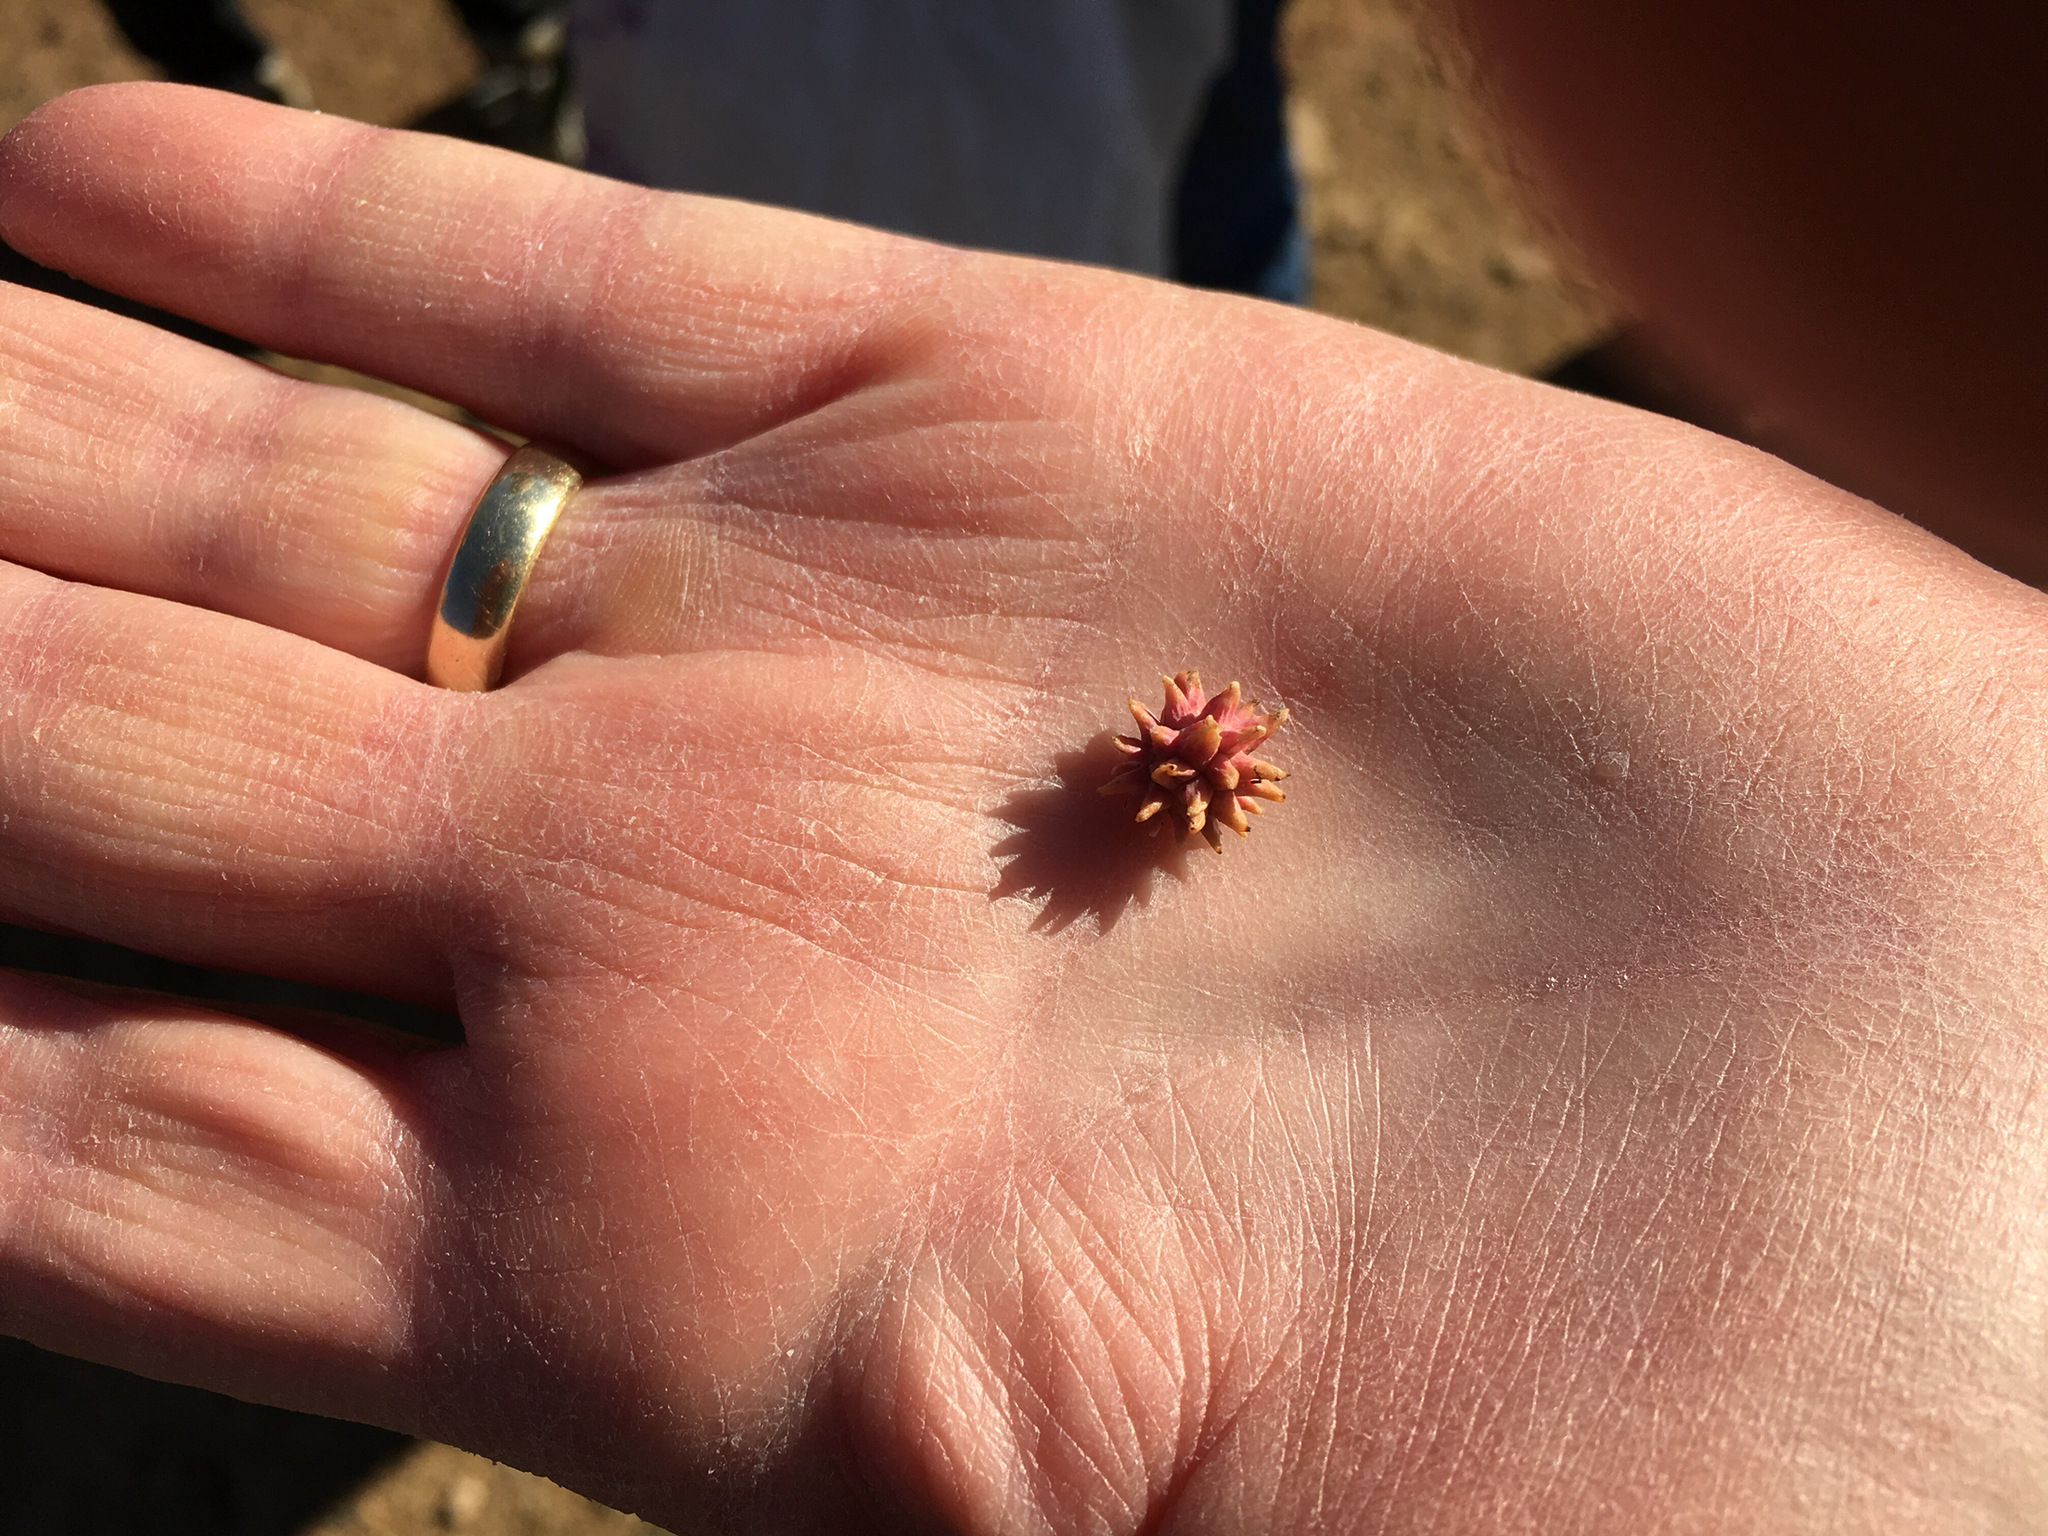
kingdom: Animalia
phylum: Arthropoda
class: Insecta
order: Hymenoptera
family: Cynipidae
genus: Cynips
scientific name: Cynips
